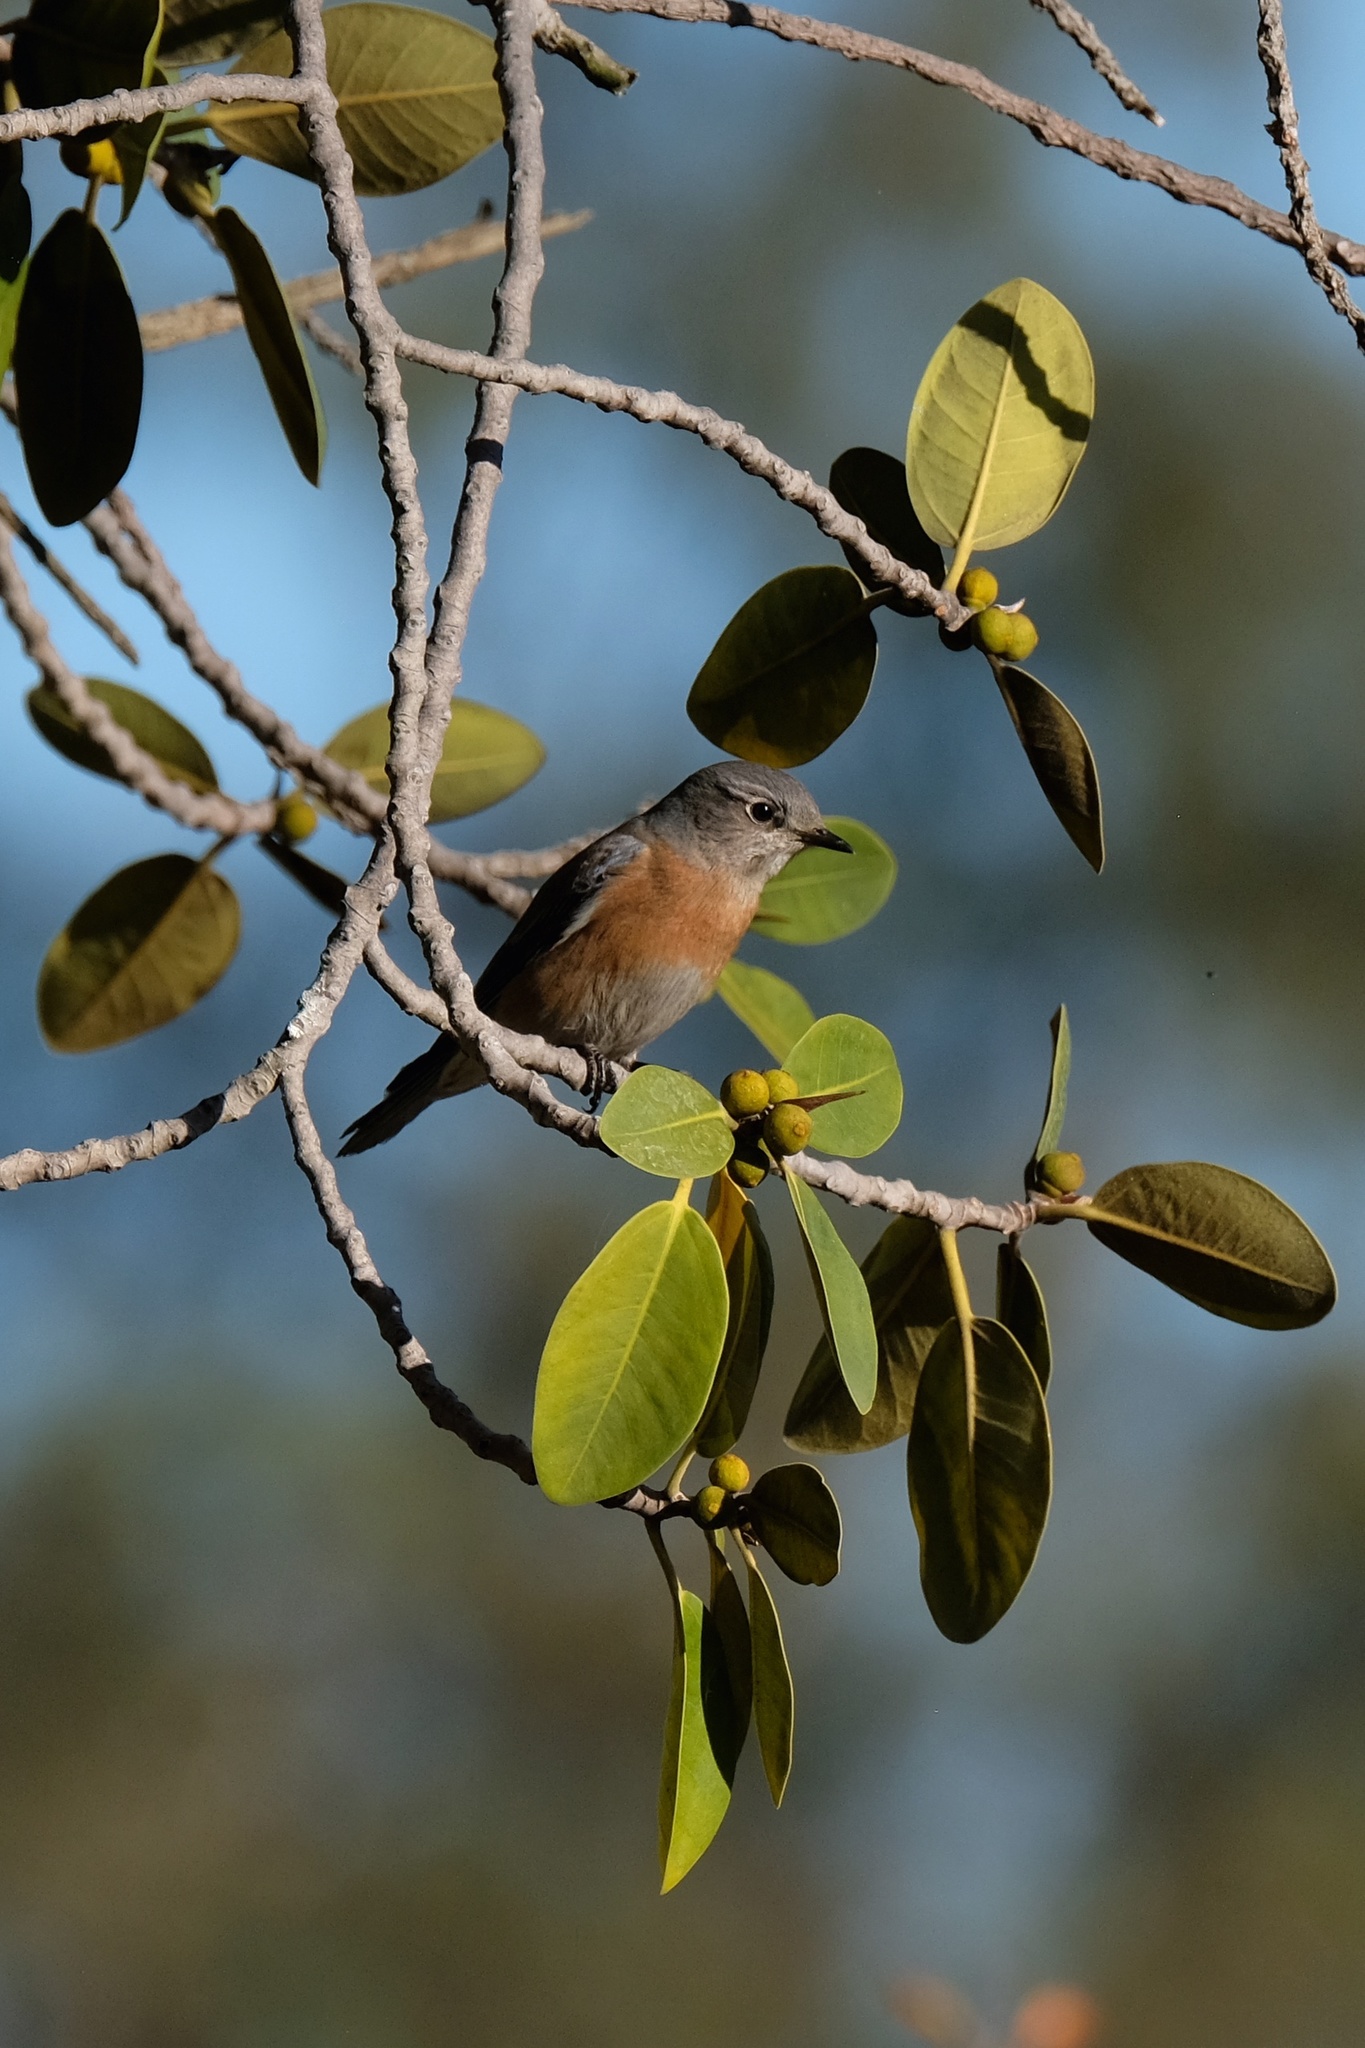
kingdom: Animalia
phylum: Chordata
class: Aves
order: Passeriformes
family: Turdidae
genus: Sialia
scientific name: Sialia mexicana
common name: Western bluebird
